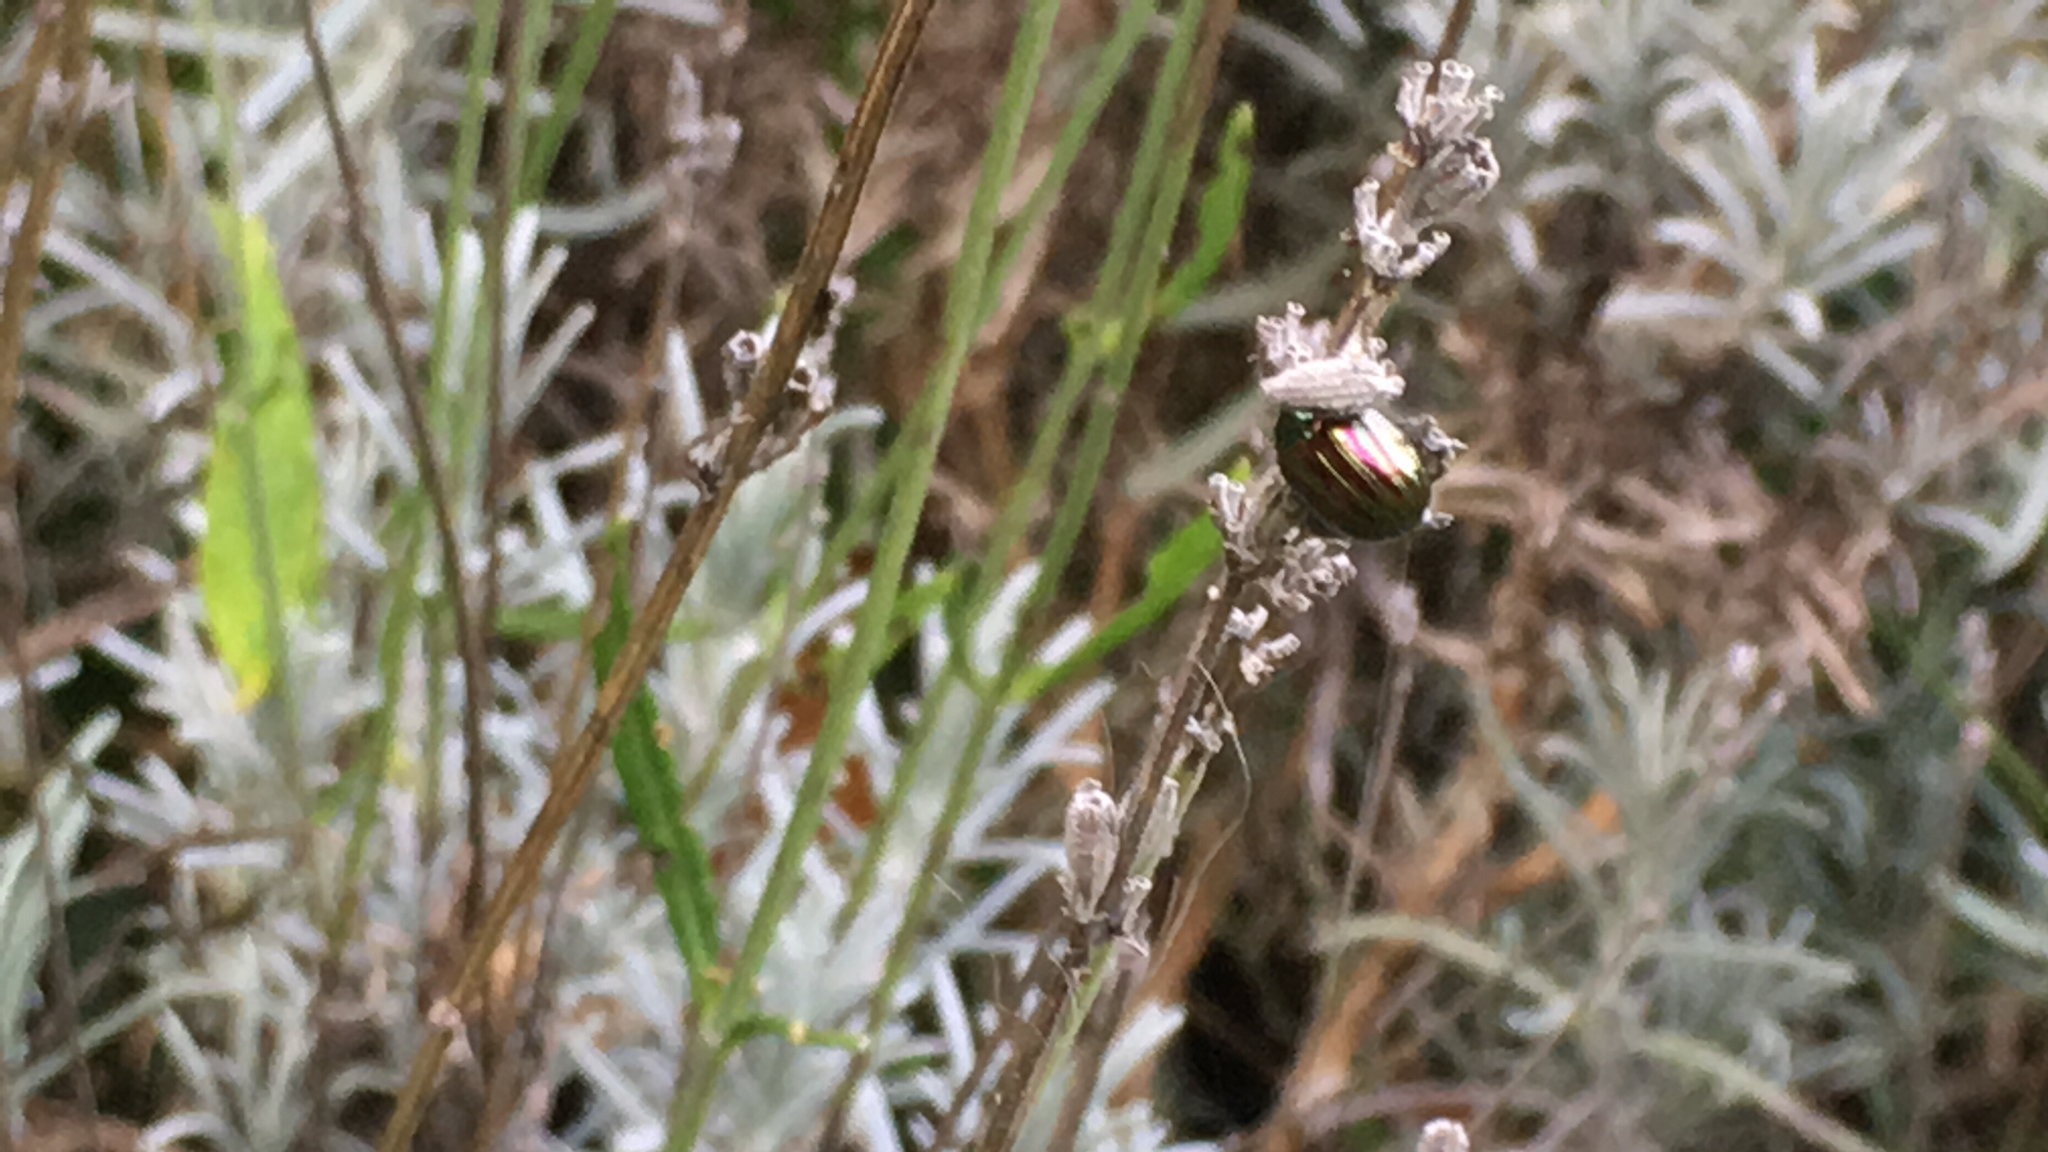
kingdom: Animalia
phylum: Arthropoda
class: Insecta
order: Coleoptera
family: Chrysomelidae
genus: Chrysolina
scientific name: Chrysolina americana
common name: Rosemary beetle
